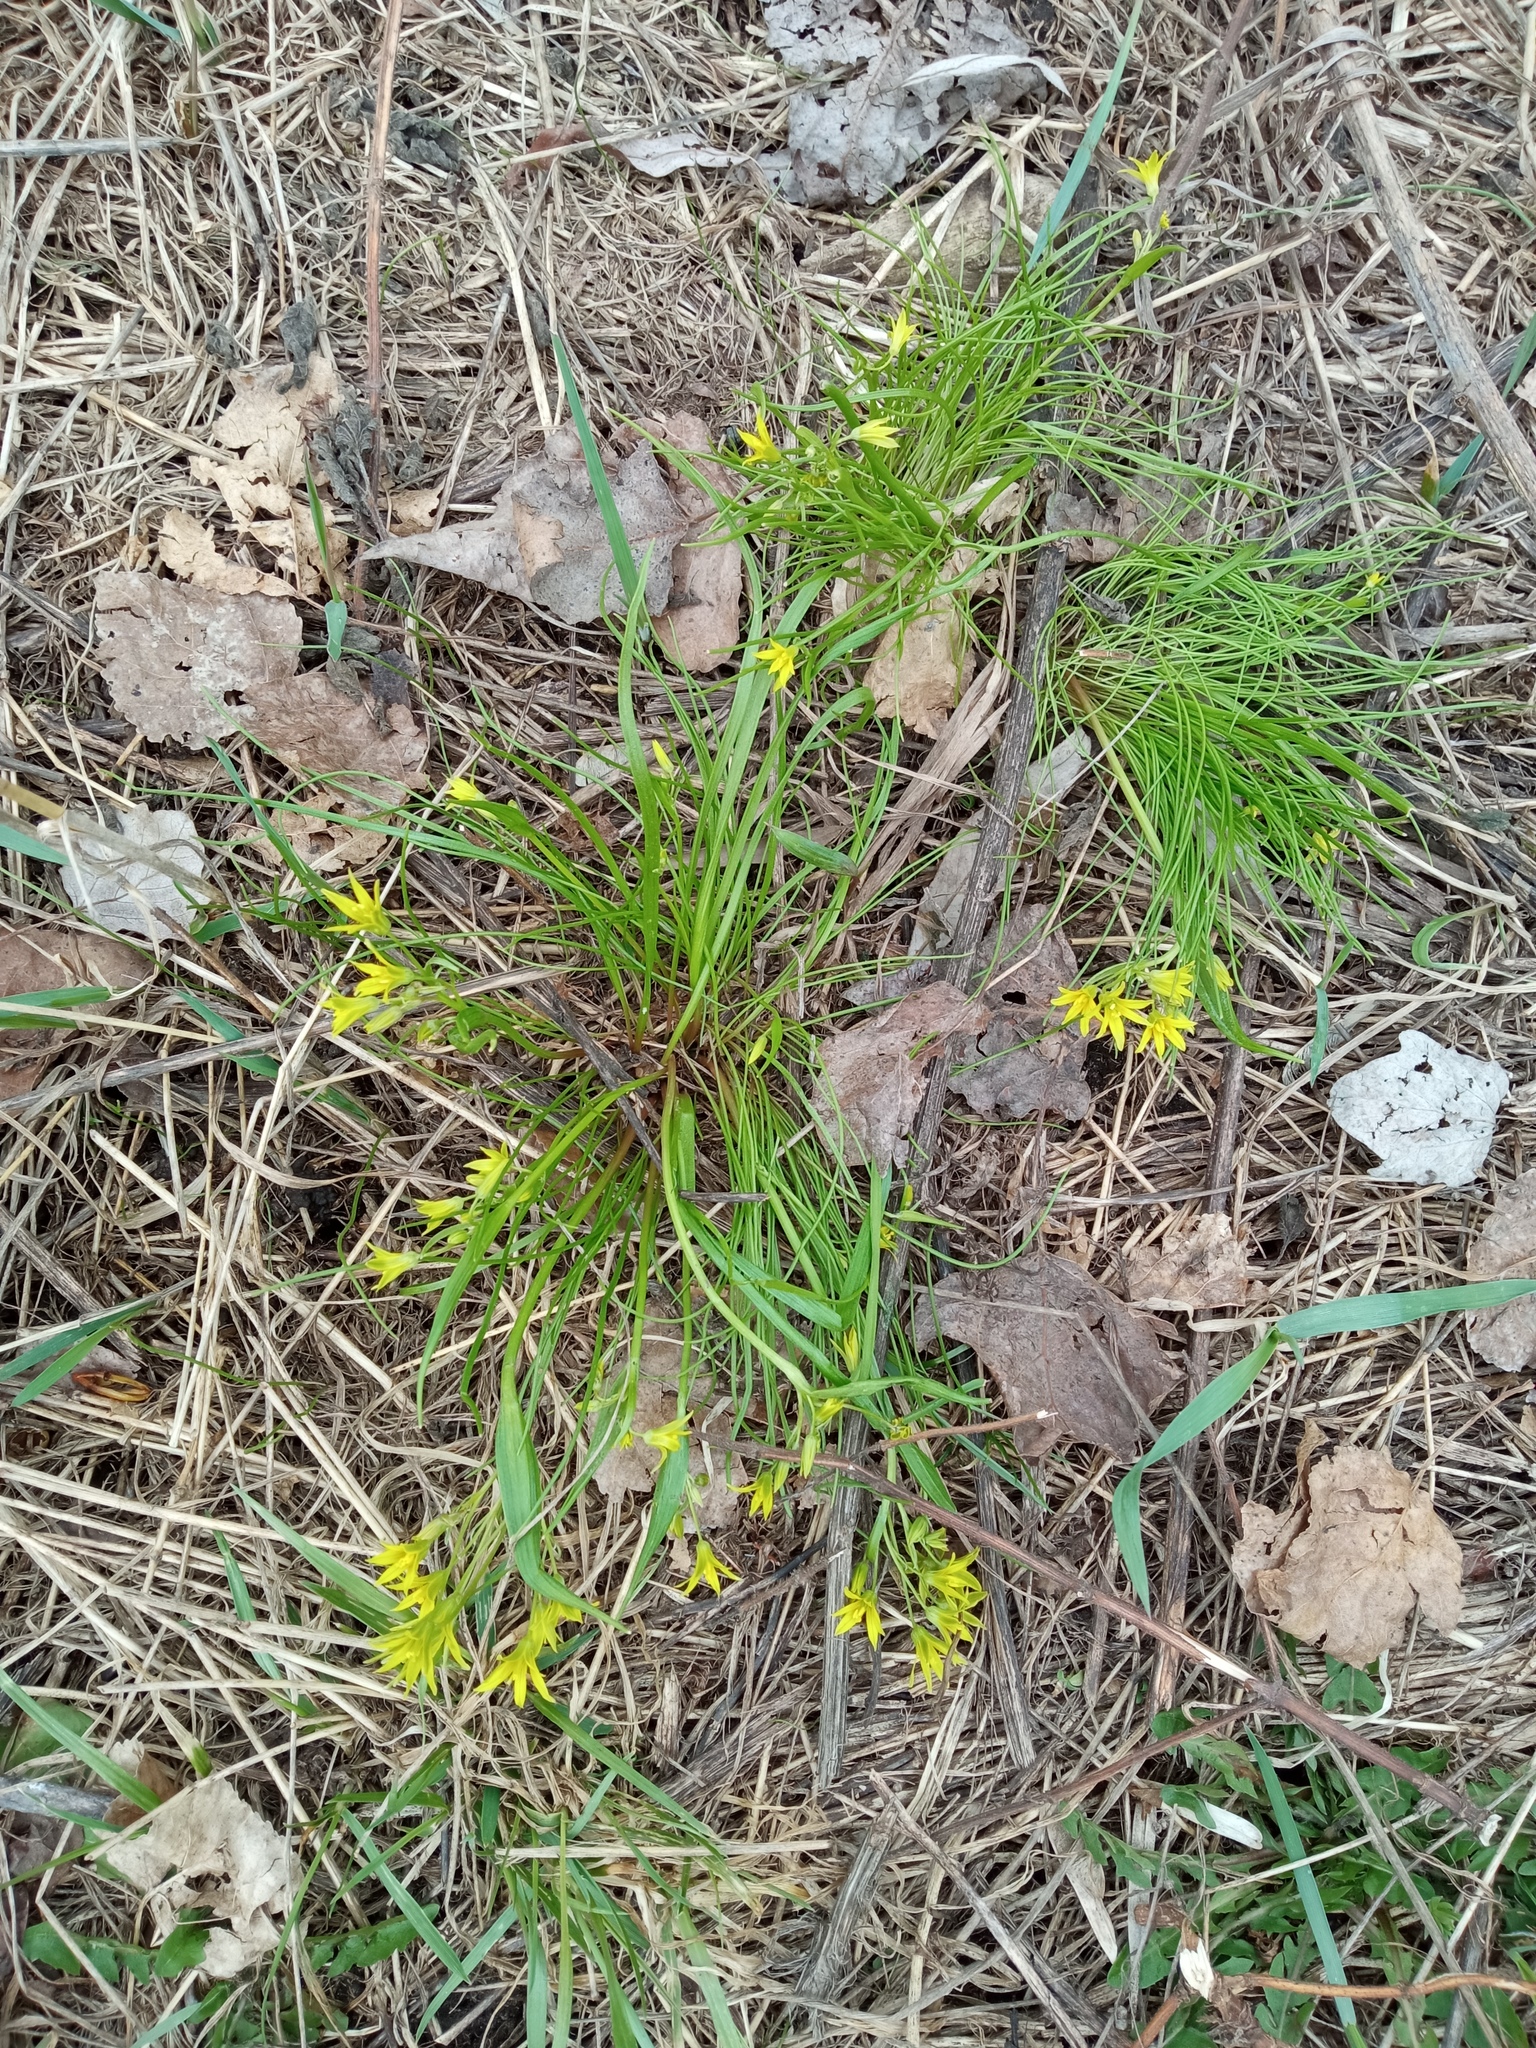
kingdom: Plantae
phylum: Tracheophyta
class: Liliopsida
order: Liliales
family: Liliaceae
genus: Gagea
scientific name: Gagea minima
